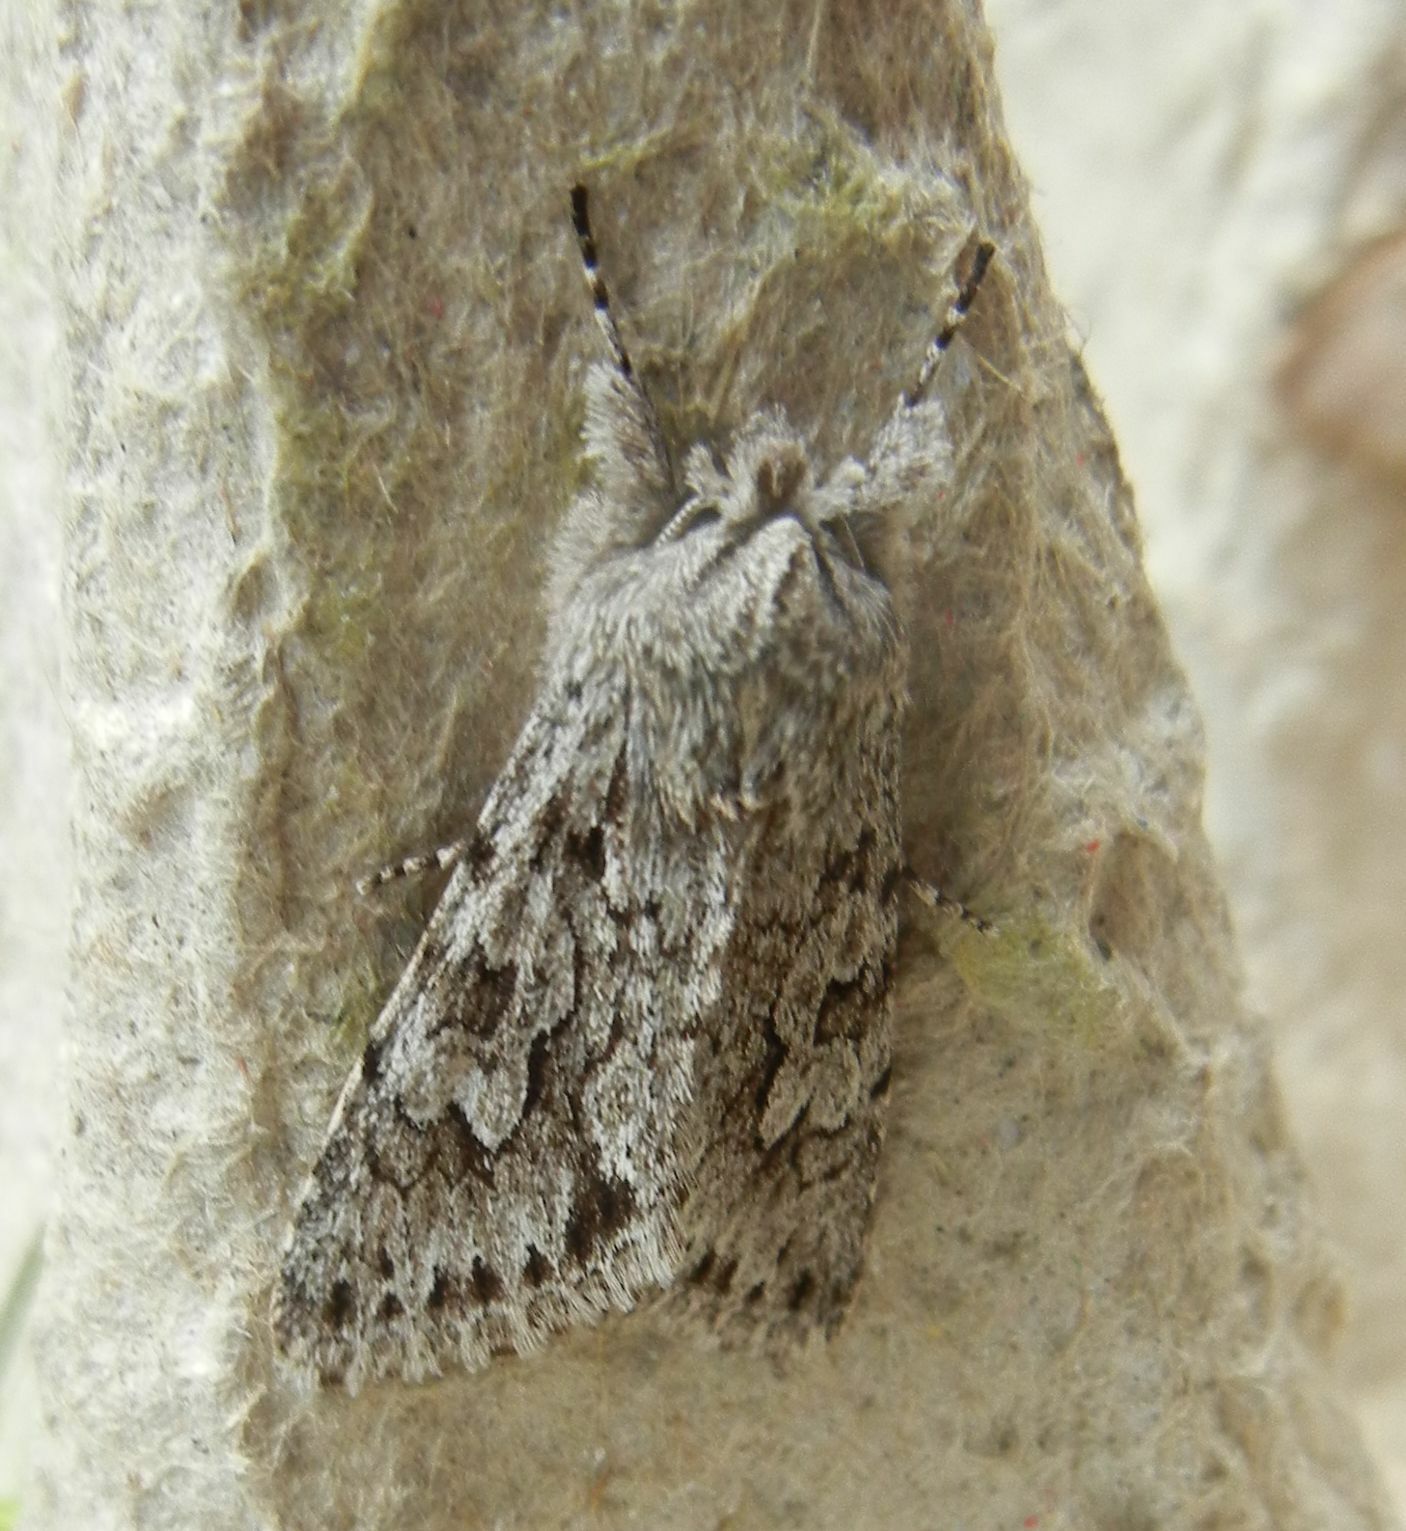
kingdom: Animalia
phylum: Arthropoda
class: Insecta
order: Lepidoptera
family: Noctuidae
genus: Xylocampa
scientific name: Xylocampa areola
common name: Early grey
